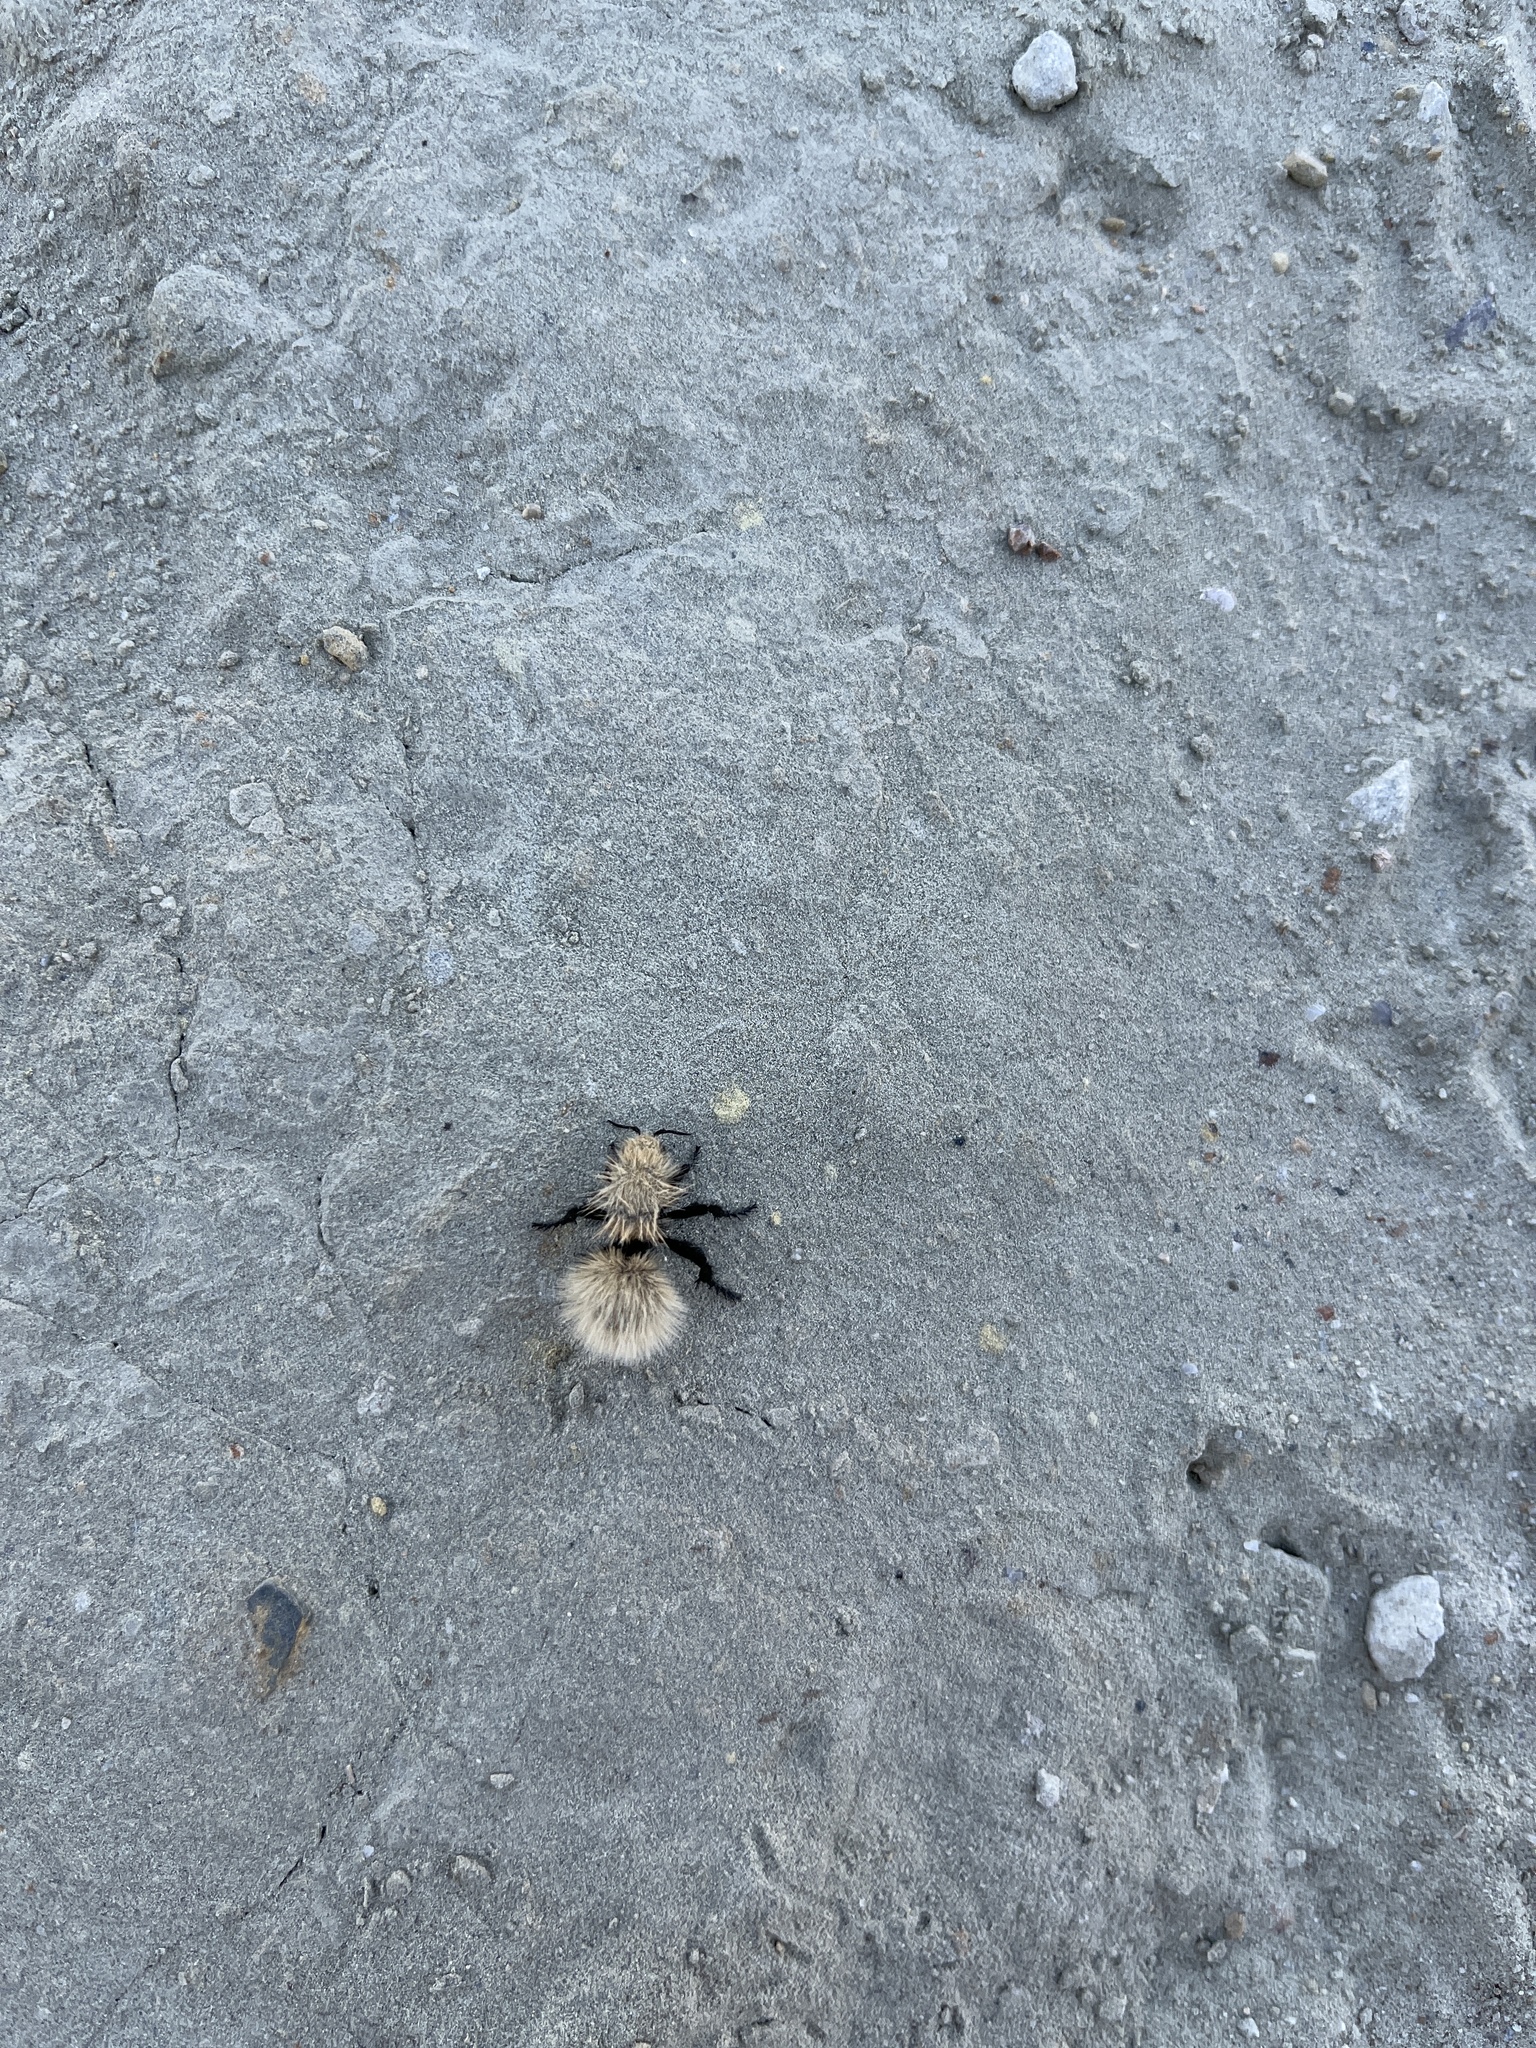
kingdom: Animalia
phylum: Arthropoda
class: Insecta
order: Hymenoptera
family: Mutillidae
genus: Dasymutilla
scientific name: Dasymutilla
